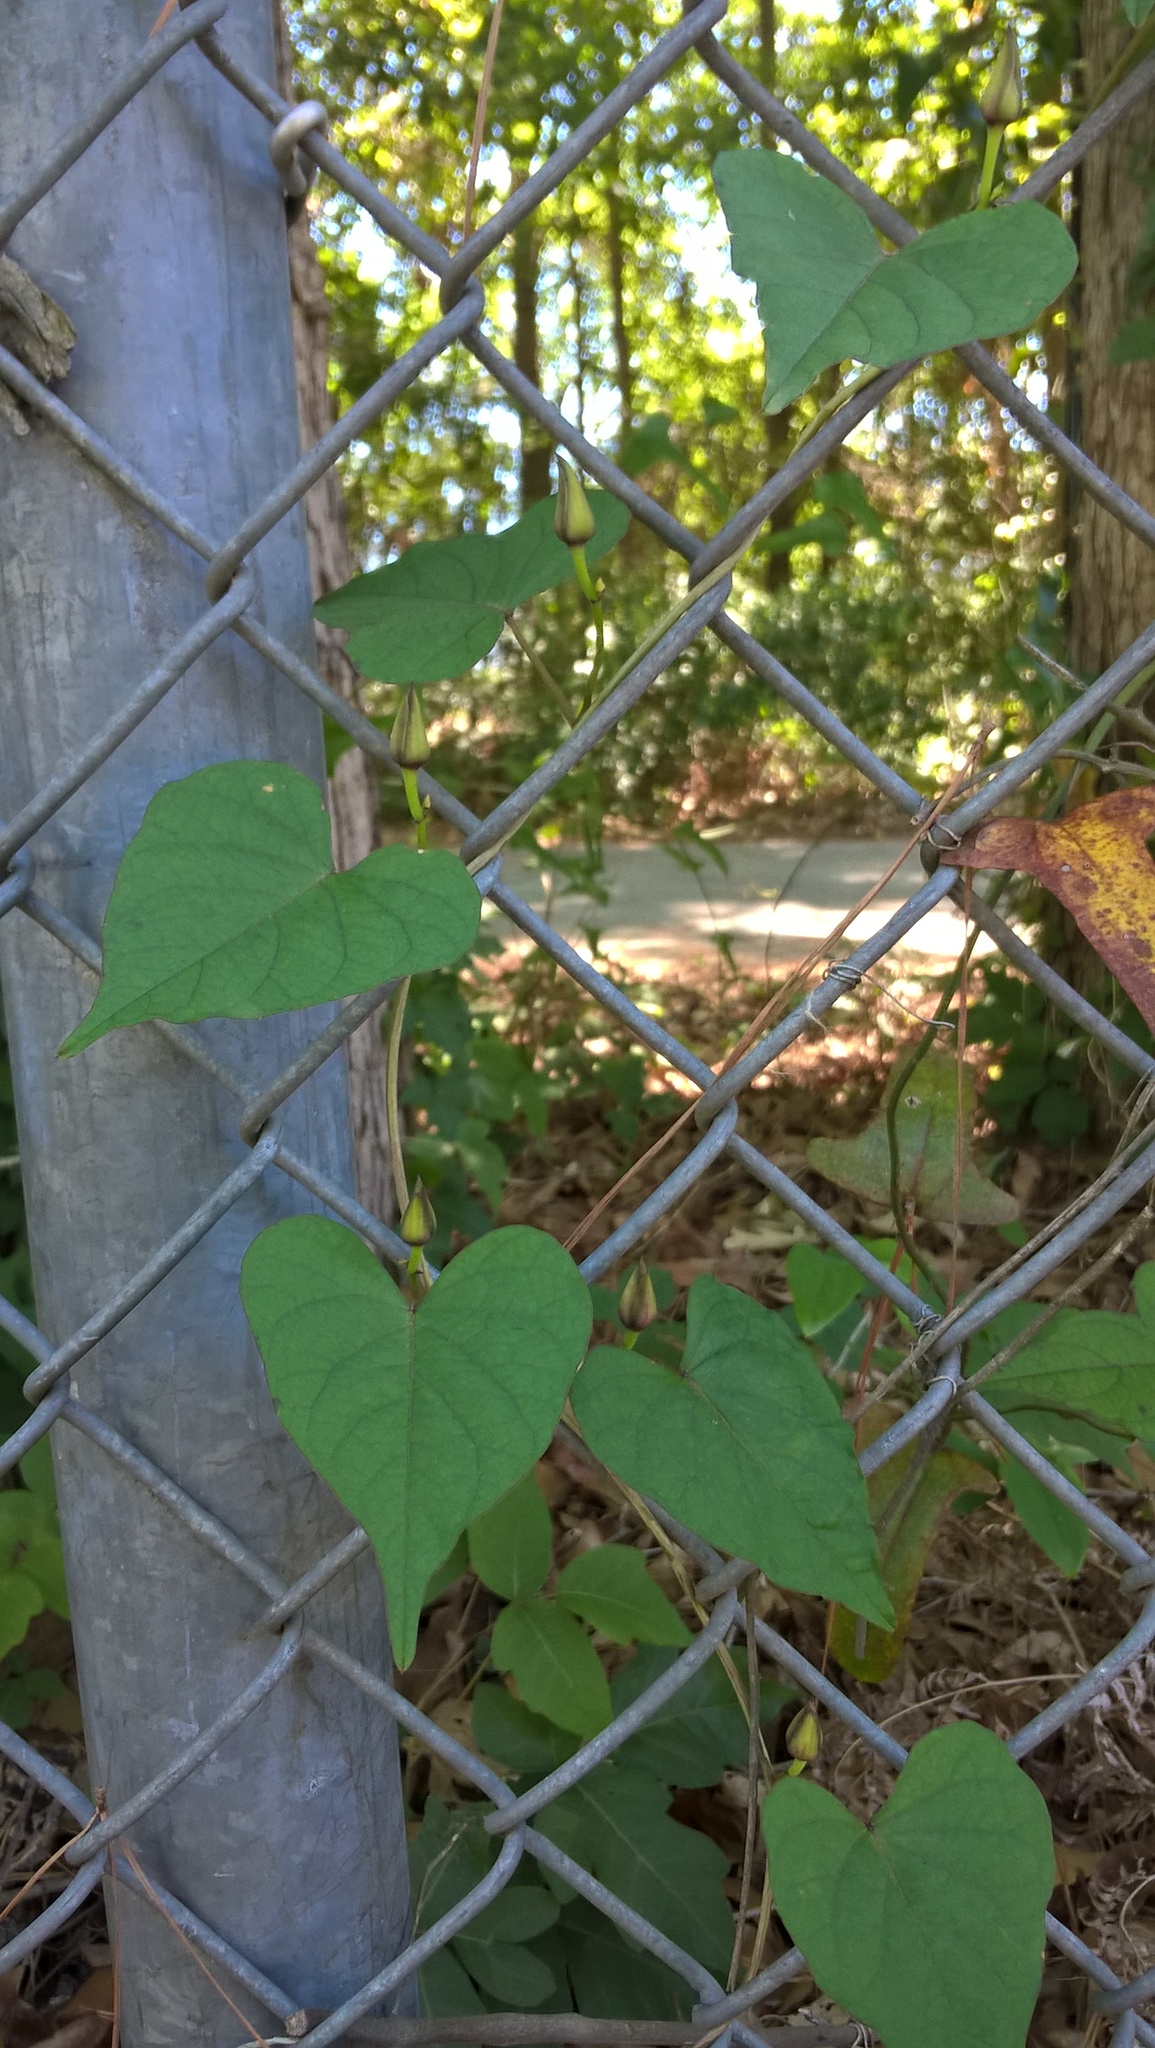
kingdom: Plantae
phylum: Tracheophyta
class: Magnoliopsida
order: Solanales
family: Convolvulaceae
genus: Ipomoea
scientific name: Ipomoea pandurata
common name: Man-of-the-earth
